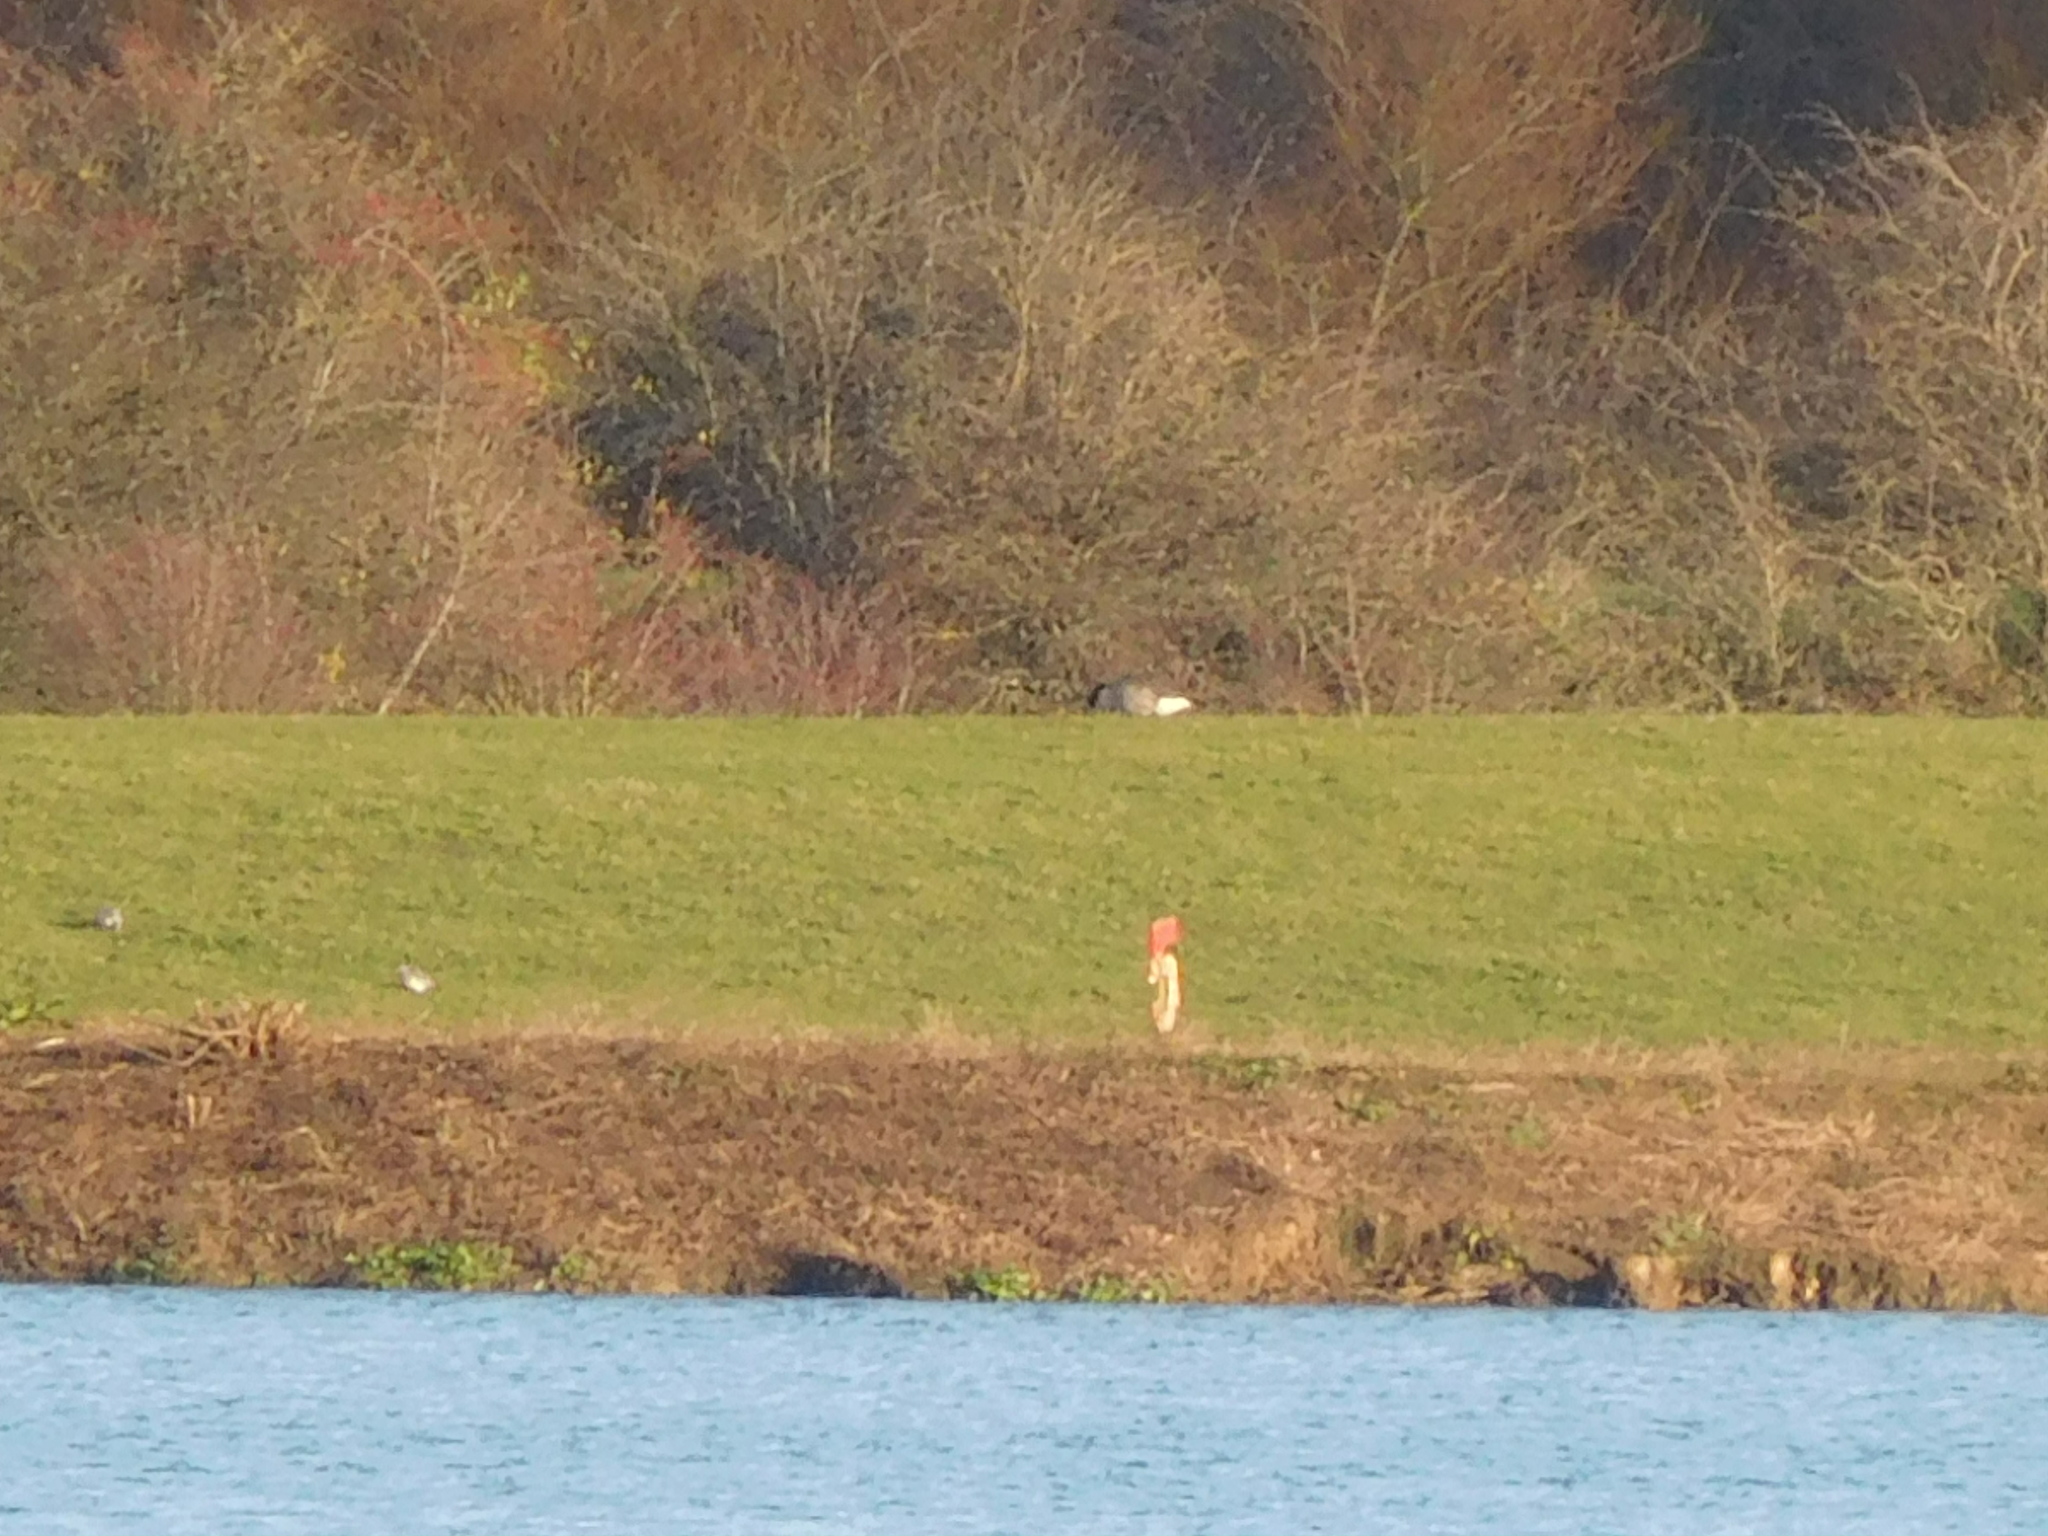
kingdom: Animalia
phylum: Chordata
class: Aves
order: Anseriformes
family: Anatidae
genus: Branta
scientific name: Branta canadensis
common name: Canada goose
